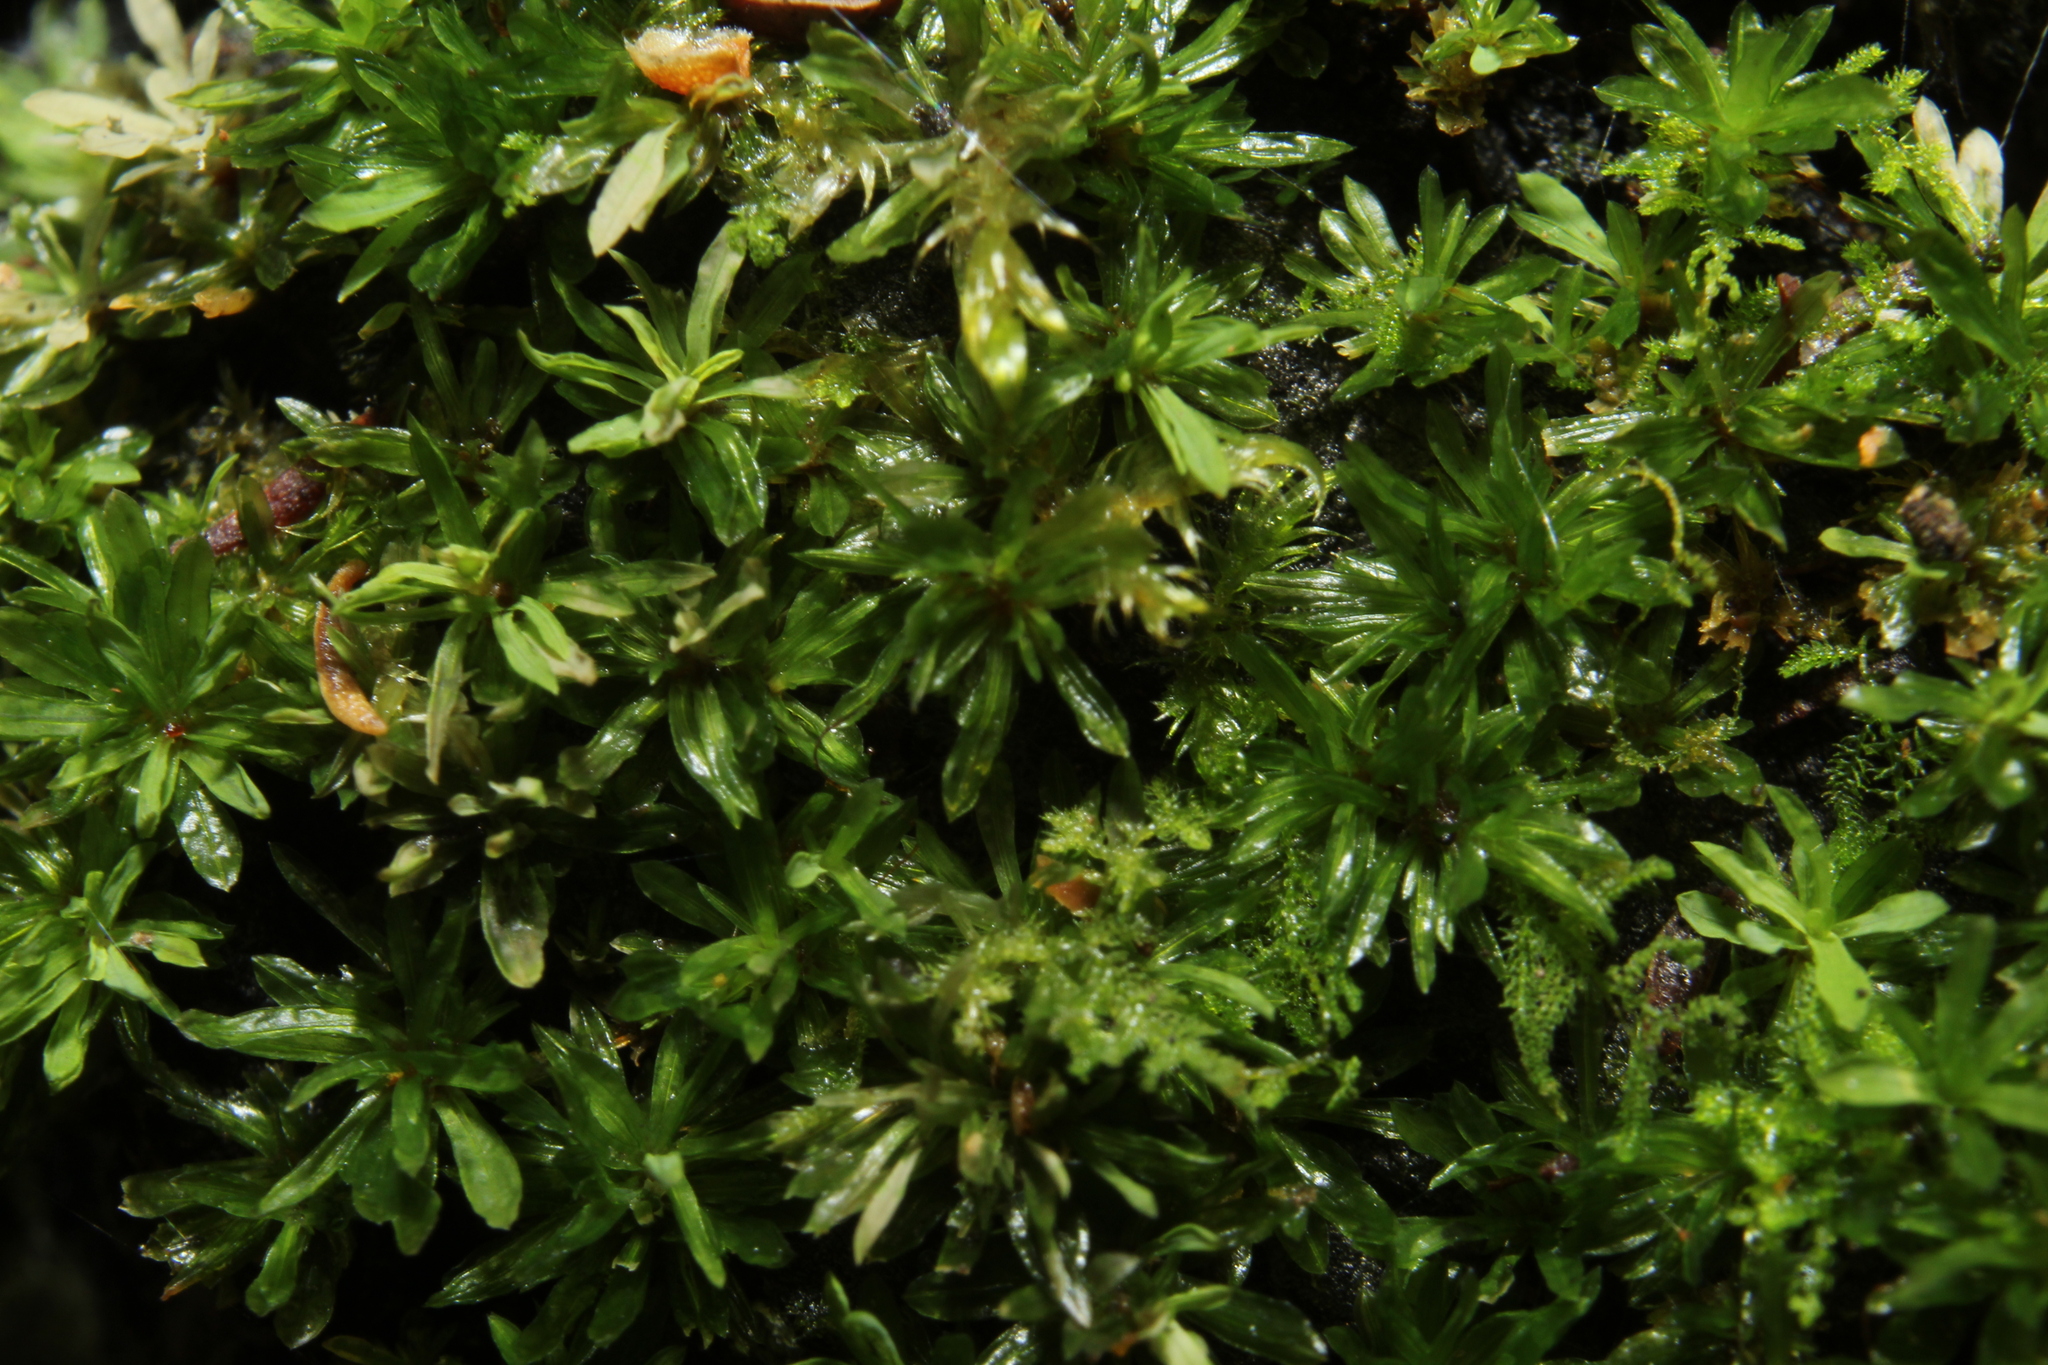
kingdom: Plantae
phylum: Bryophyta
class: Bryopsida
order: Pottiales
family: Pottiaceae
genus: Calymperastrum
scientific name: Calymperastrum latifolium
